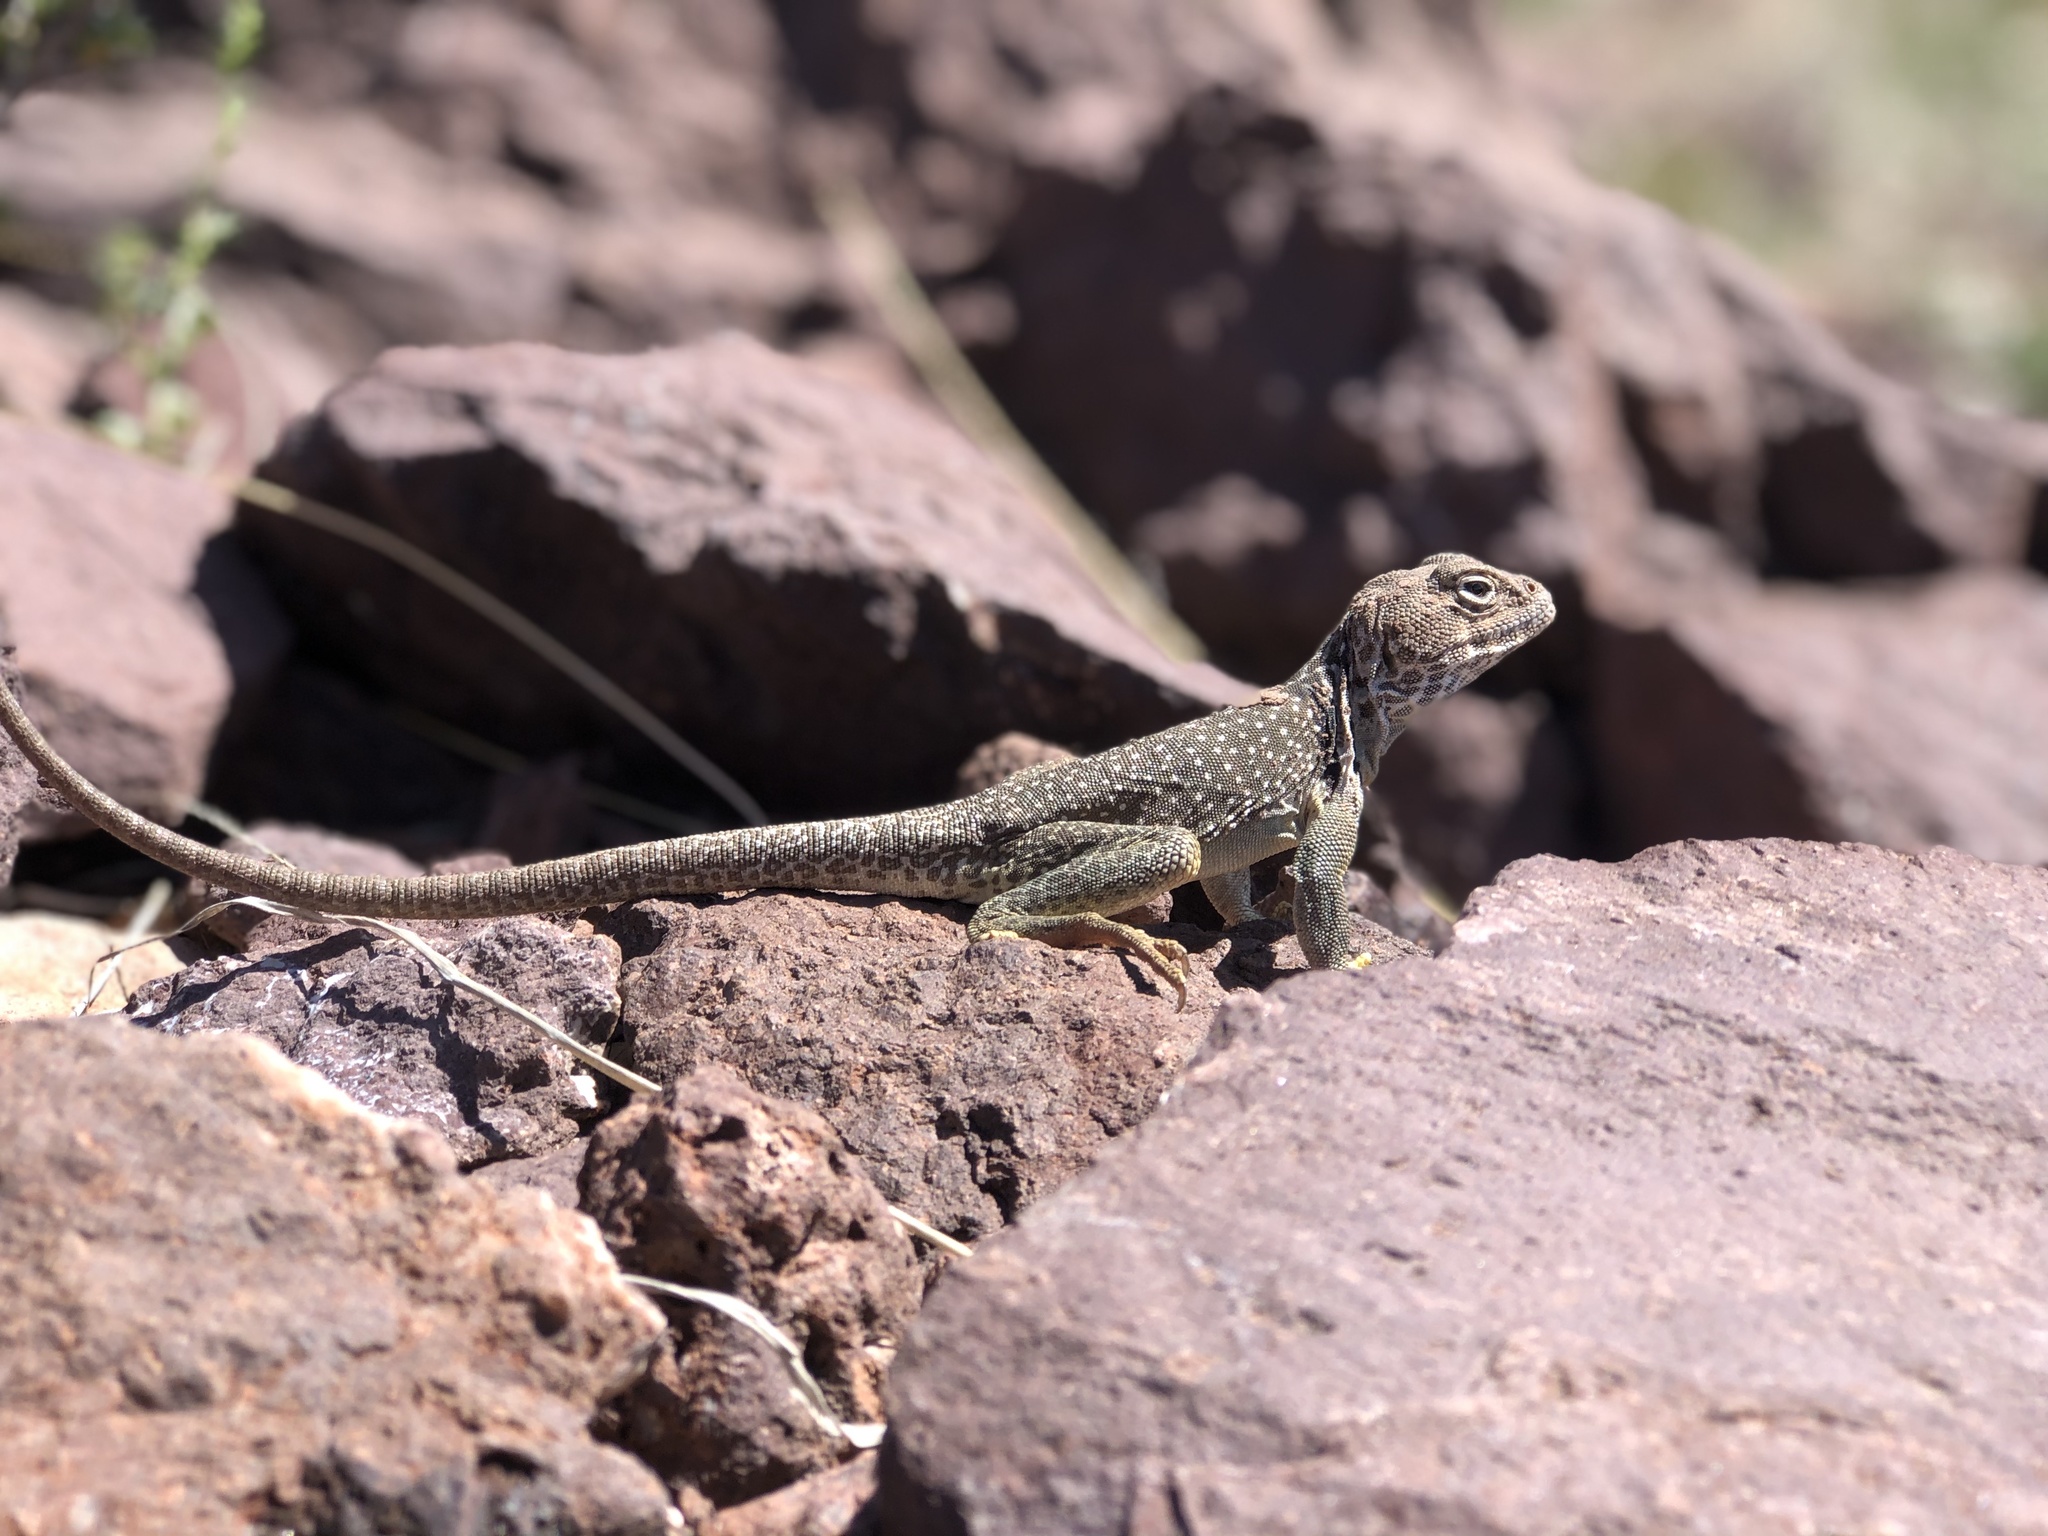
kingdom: Animalia
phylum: Chordata
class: Squamata
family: Crotaphytidae
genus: Crotaphytus
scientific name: Crotaphytus collaris
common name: Collared lizard
